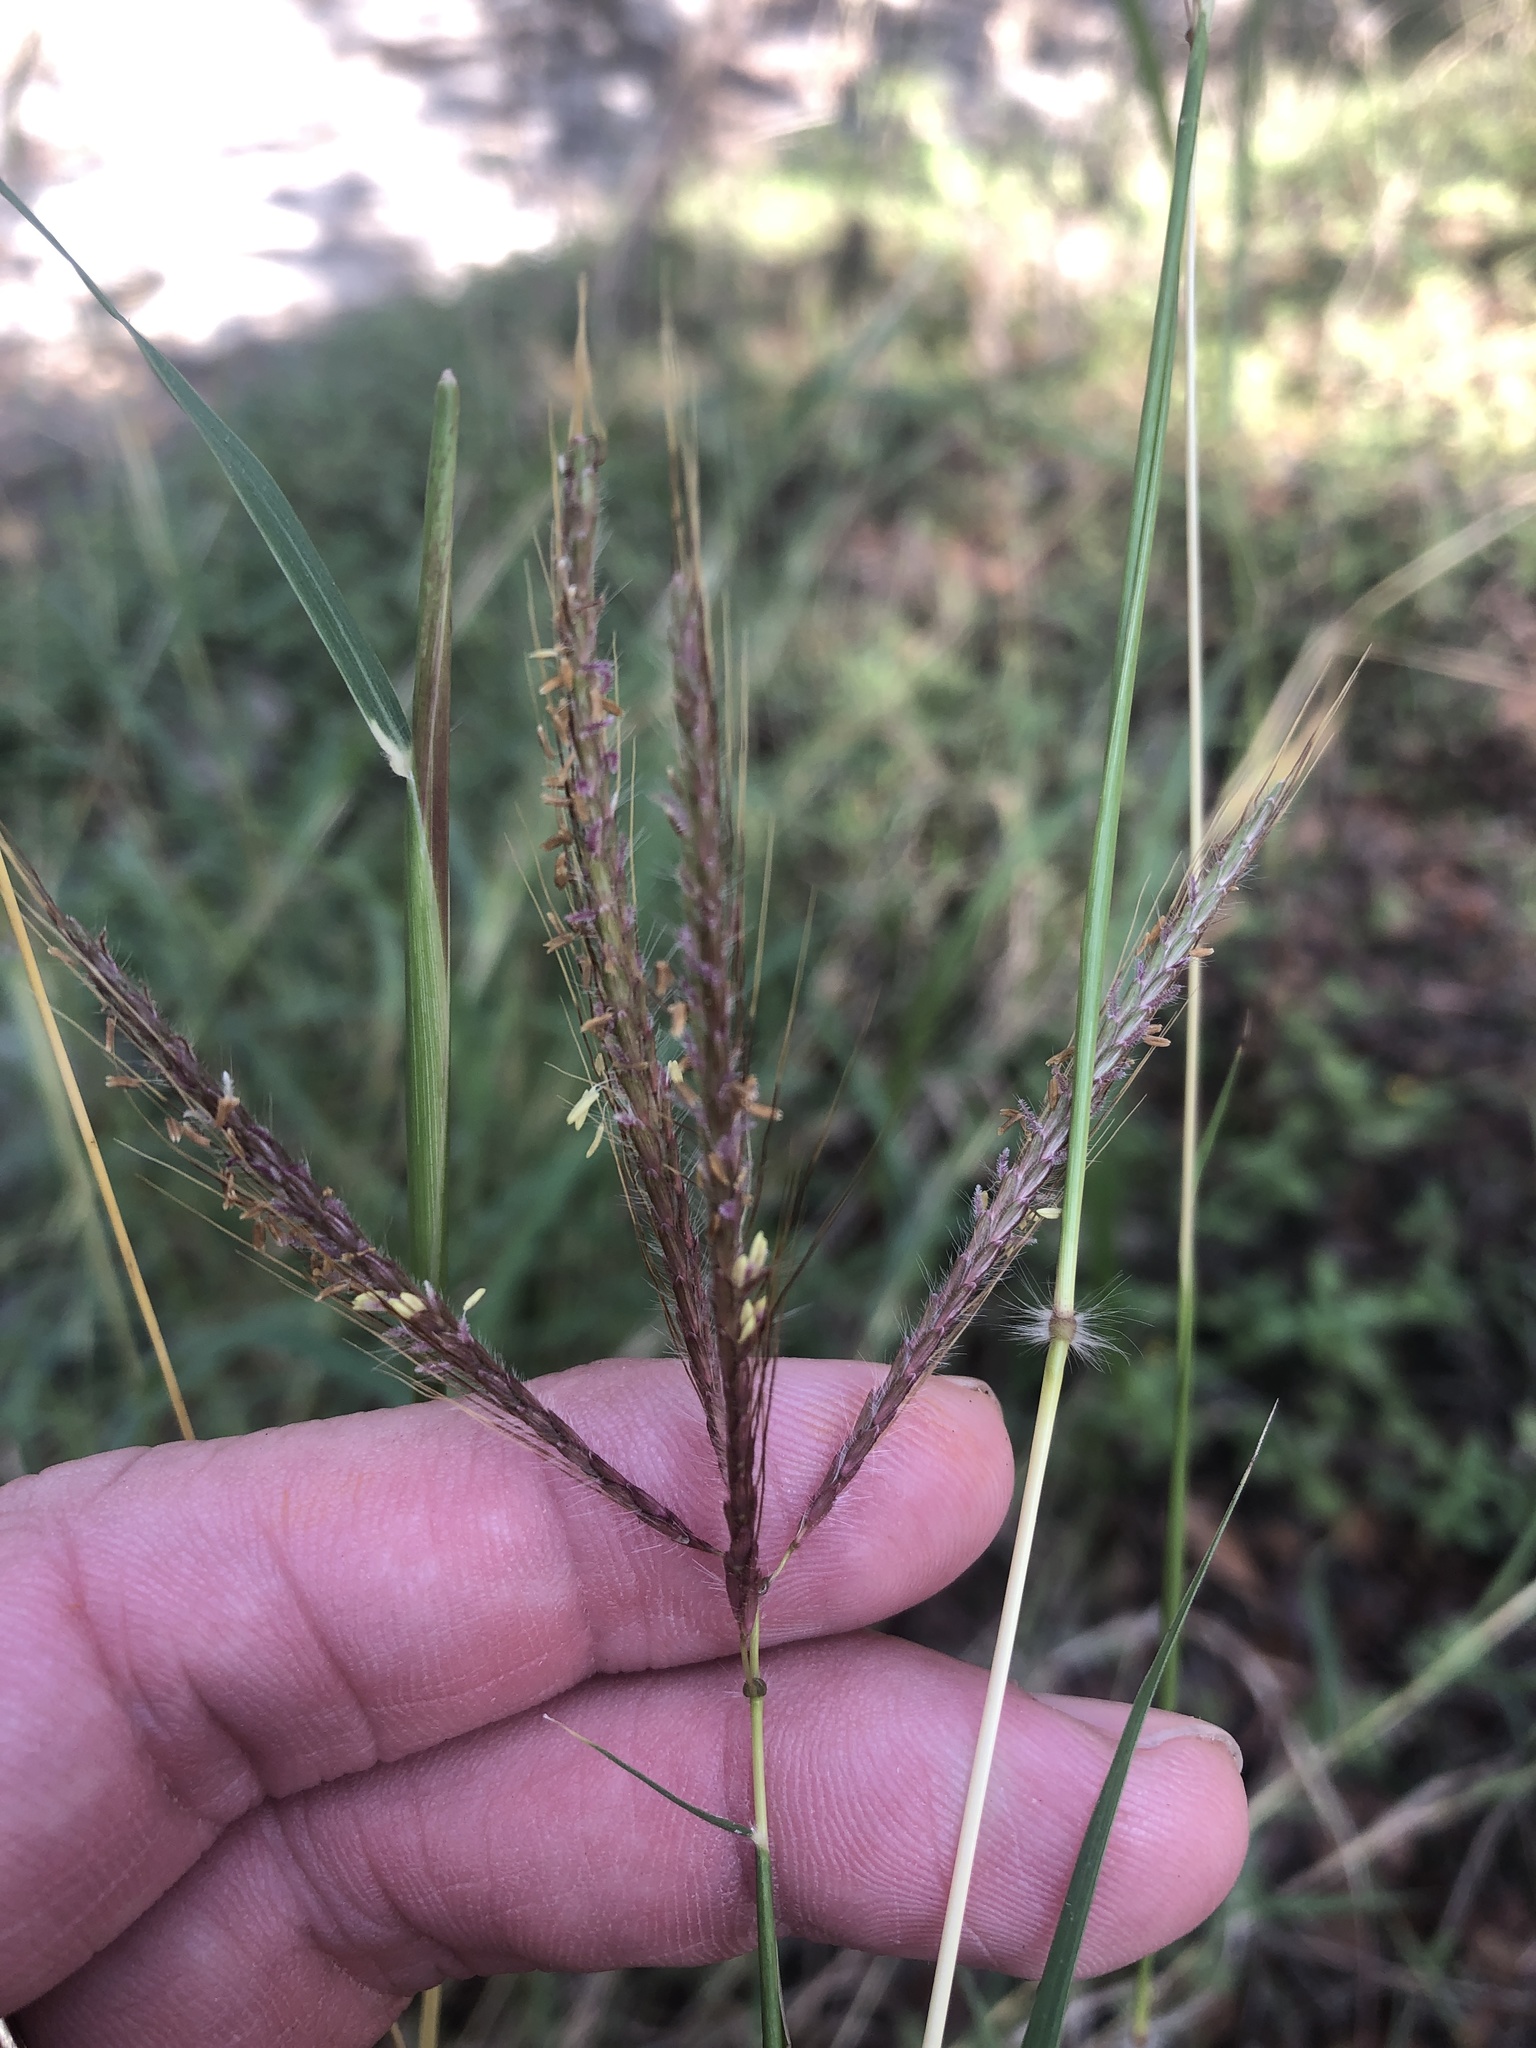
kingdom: Plantae
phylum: Tracheophyta
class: Liliopsida
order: Poales
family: Poaceae
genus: Dichanthium
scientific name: Dichanthium annulatum
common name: Kleberg's bluestem
